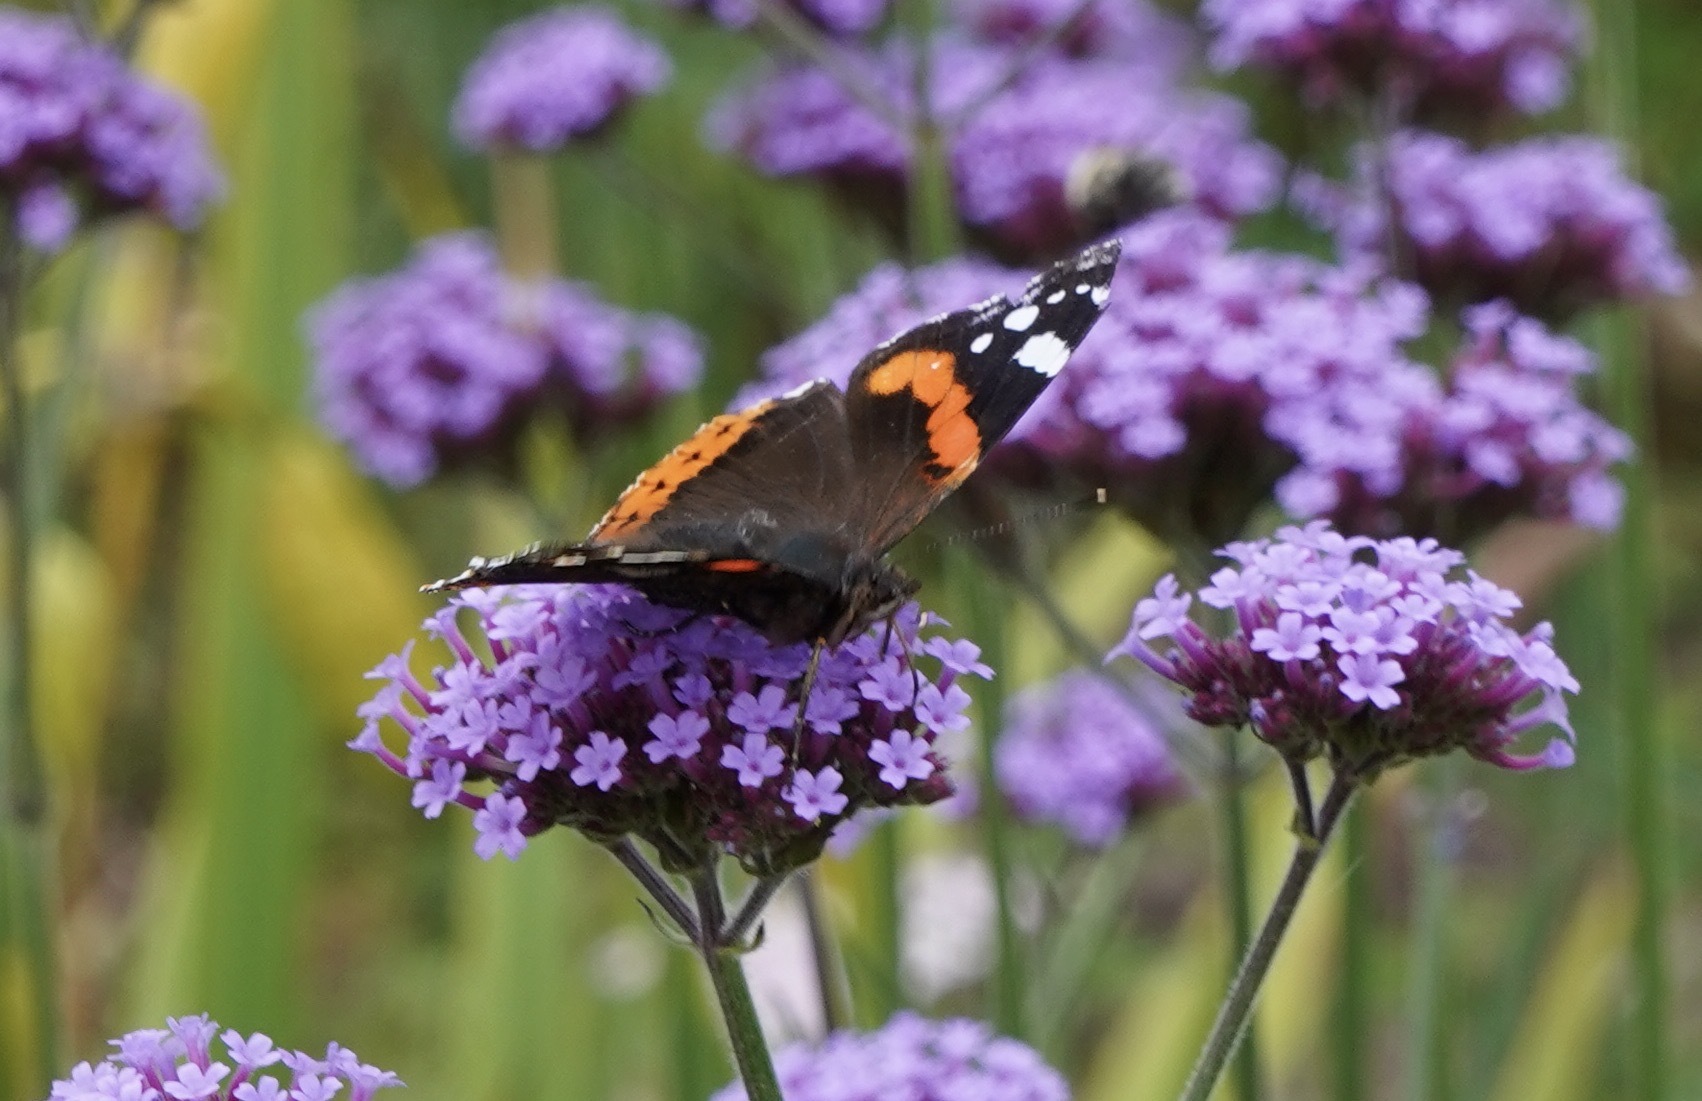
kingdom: Animalia
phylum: Arthropoda
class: Insecta
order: Lepidoptera
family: Nymphalidae
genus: Vanessa
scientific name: Vanessa atalanta
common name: Red admiral
